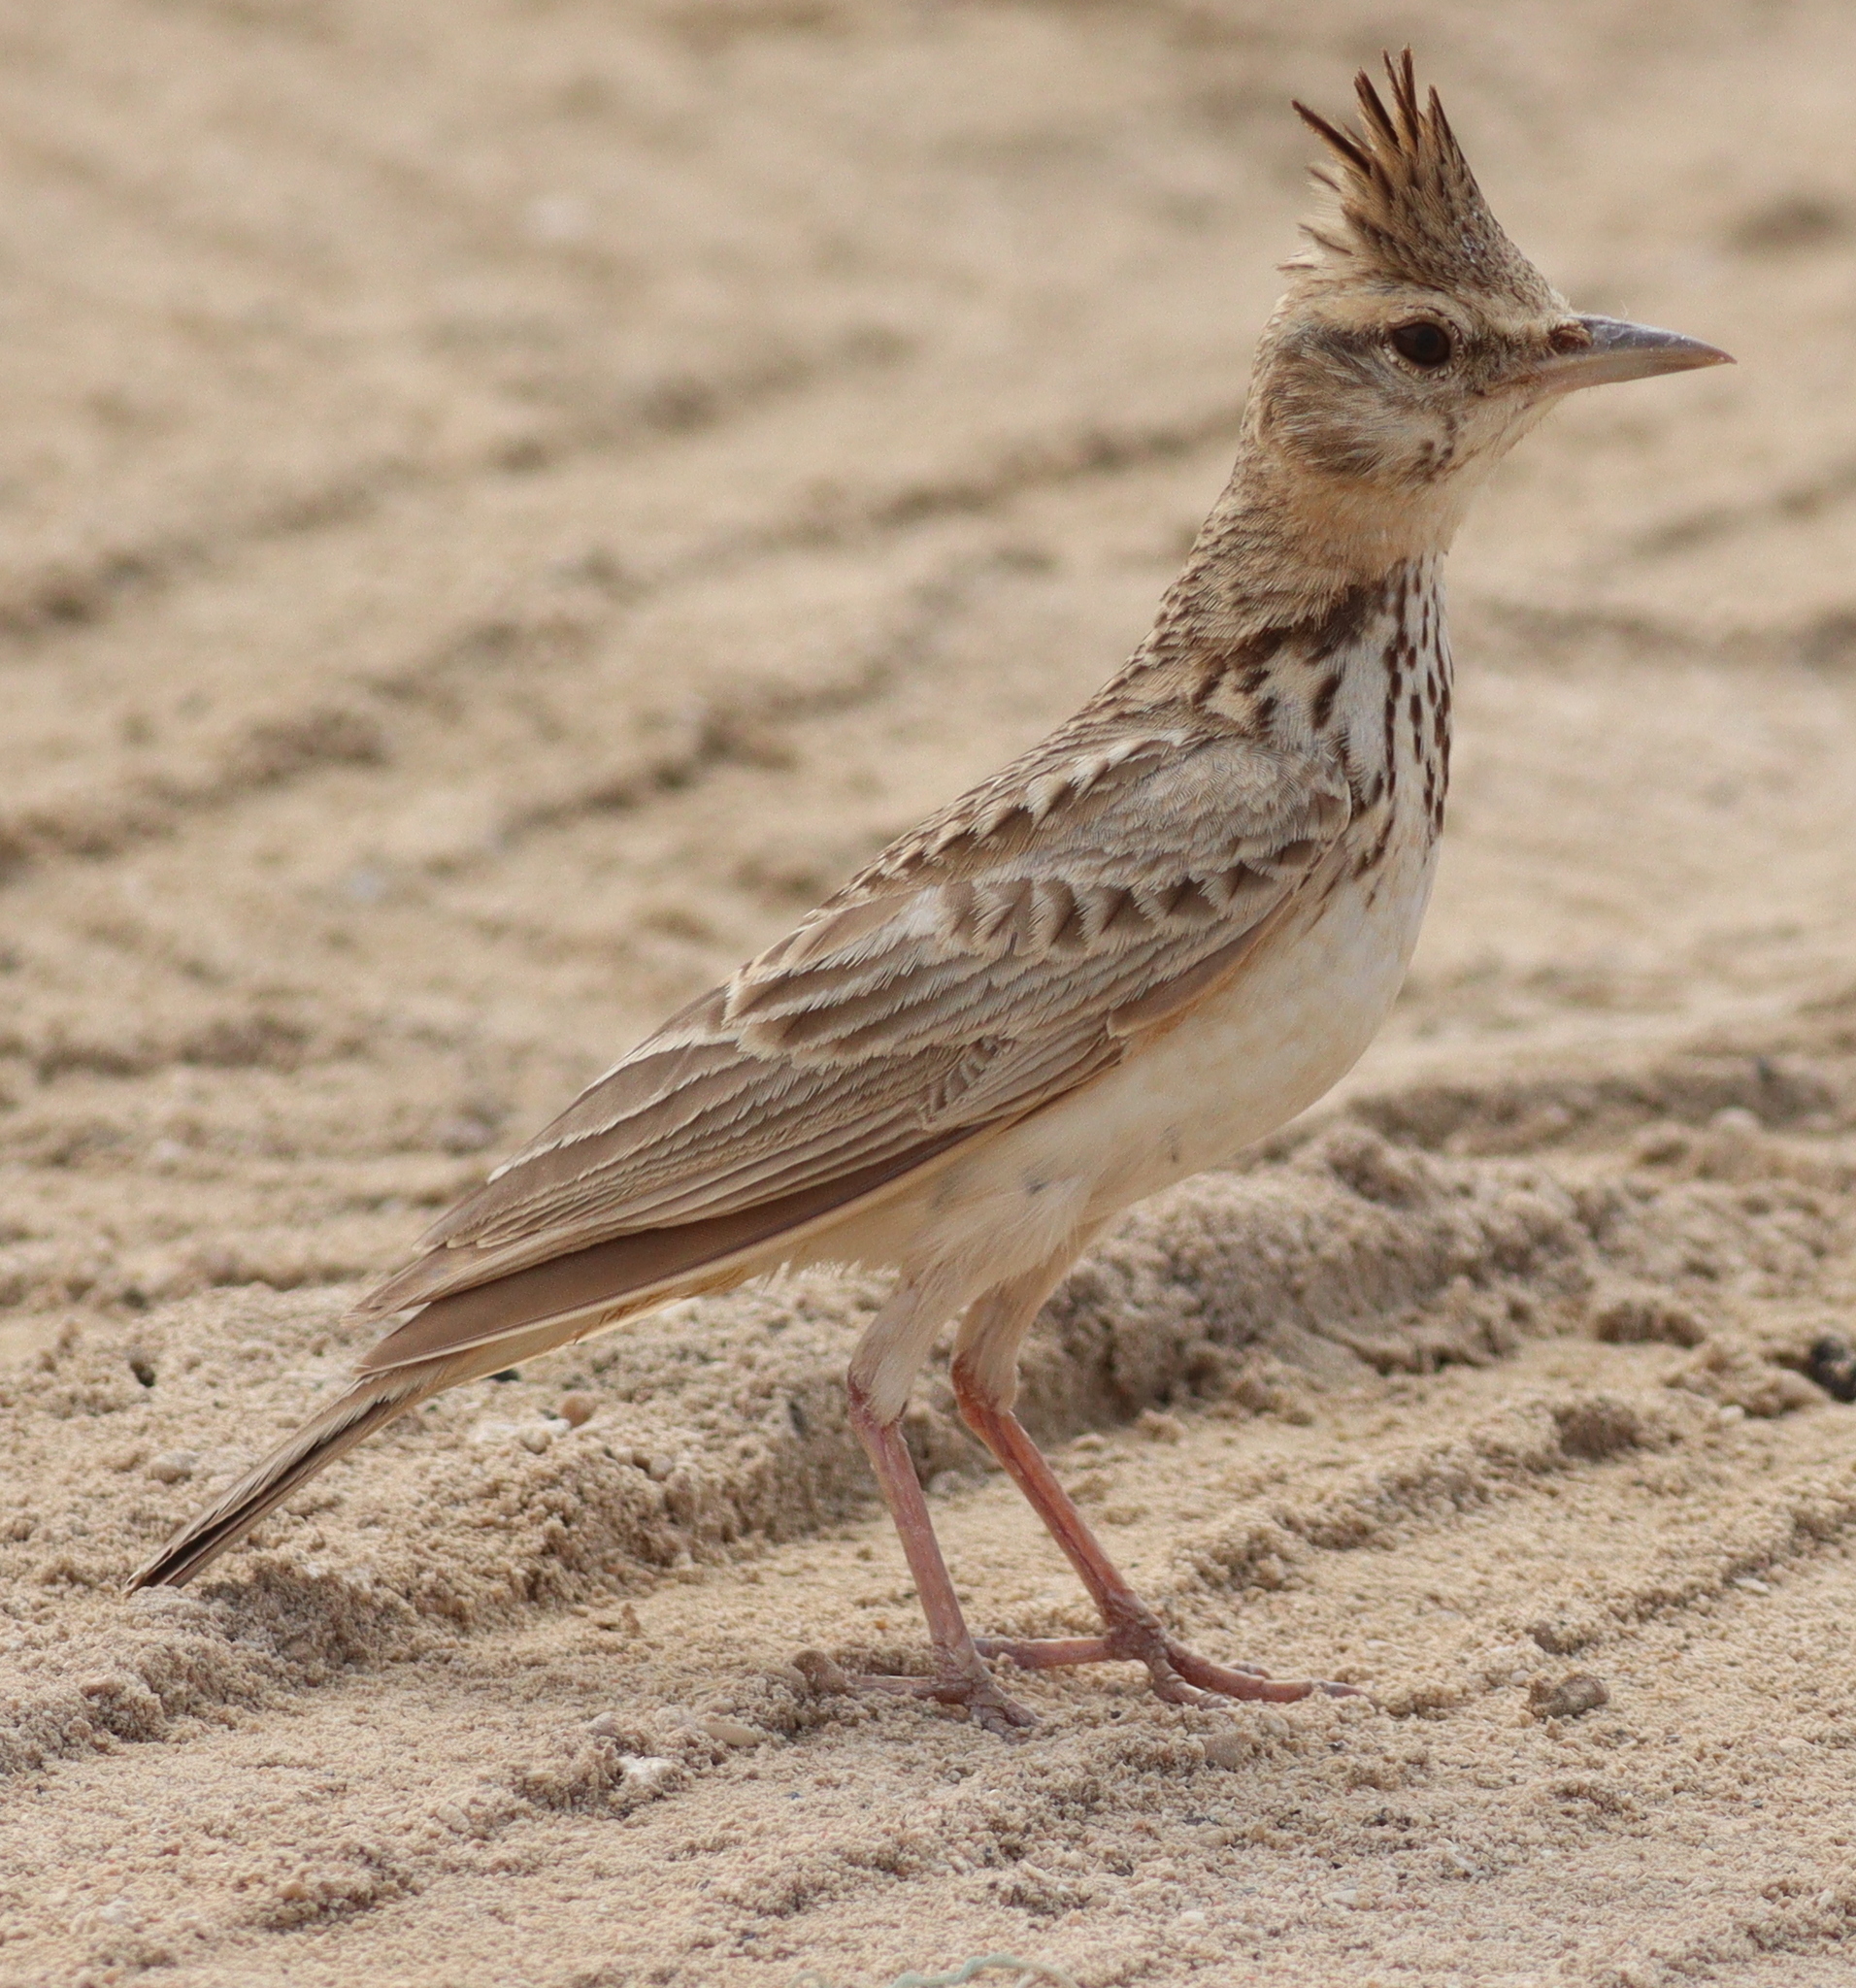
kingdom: Animalia
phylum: Chordata
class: Aves
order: Passeriformes
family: Alaudidae
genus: Galerida
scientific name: Galerida cristata
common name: Crested lark
